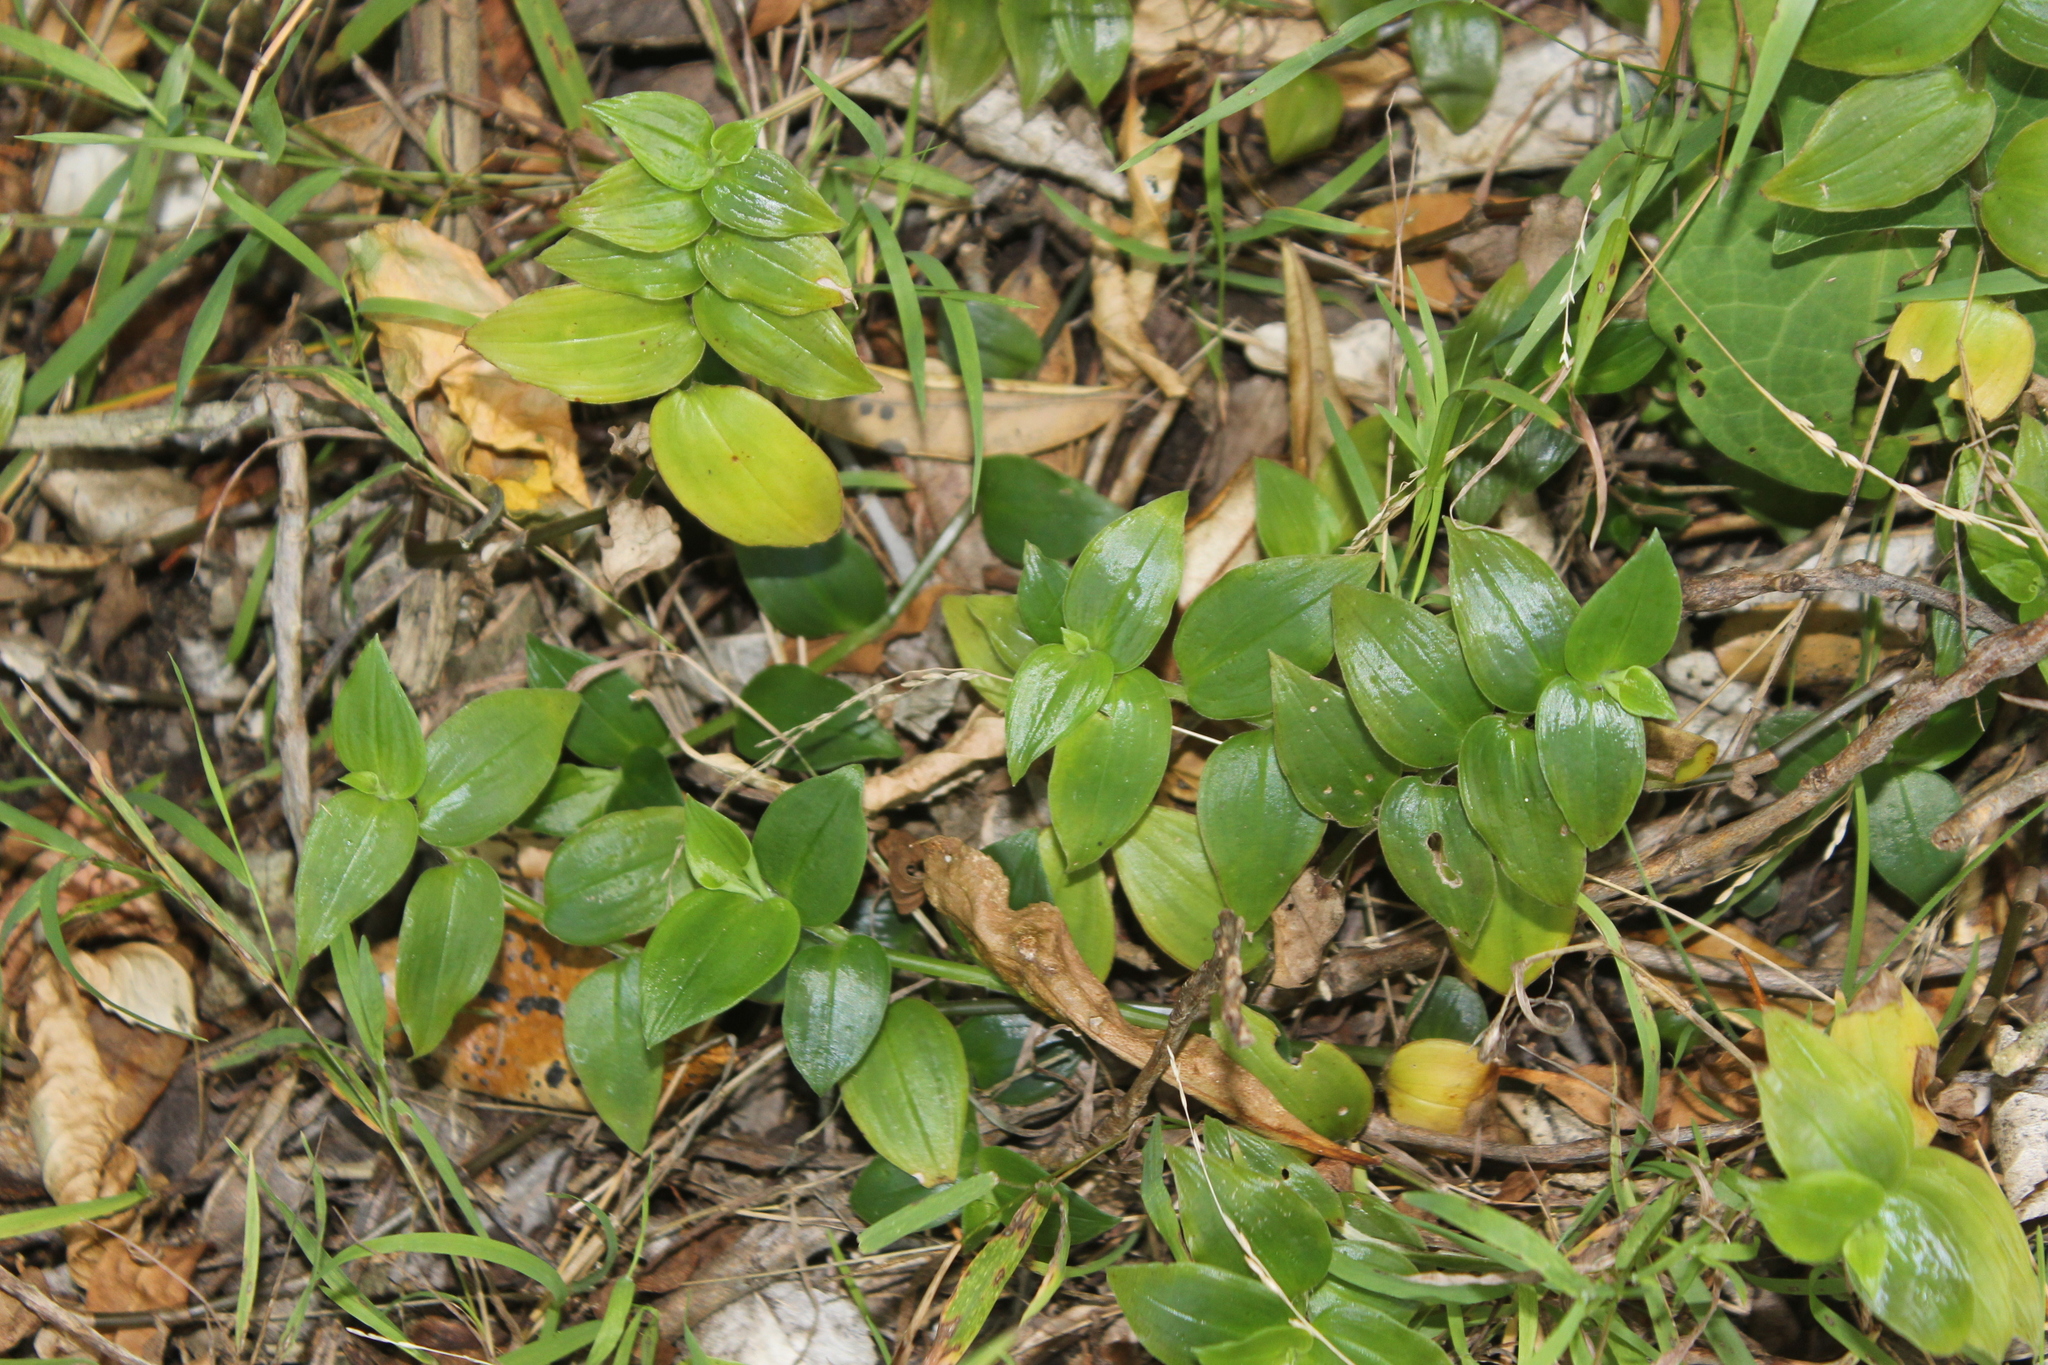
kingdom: Plantae
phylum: Tracheophyta
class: Liliopsida
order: Commelinales
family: Commelinaceae
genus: Tradescantia
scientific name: Tradescantia fluminensis
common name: Wandering-jew
